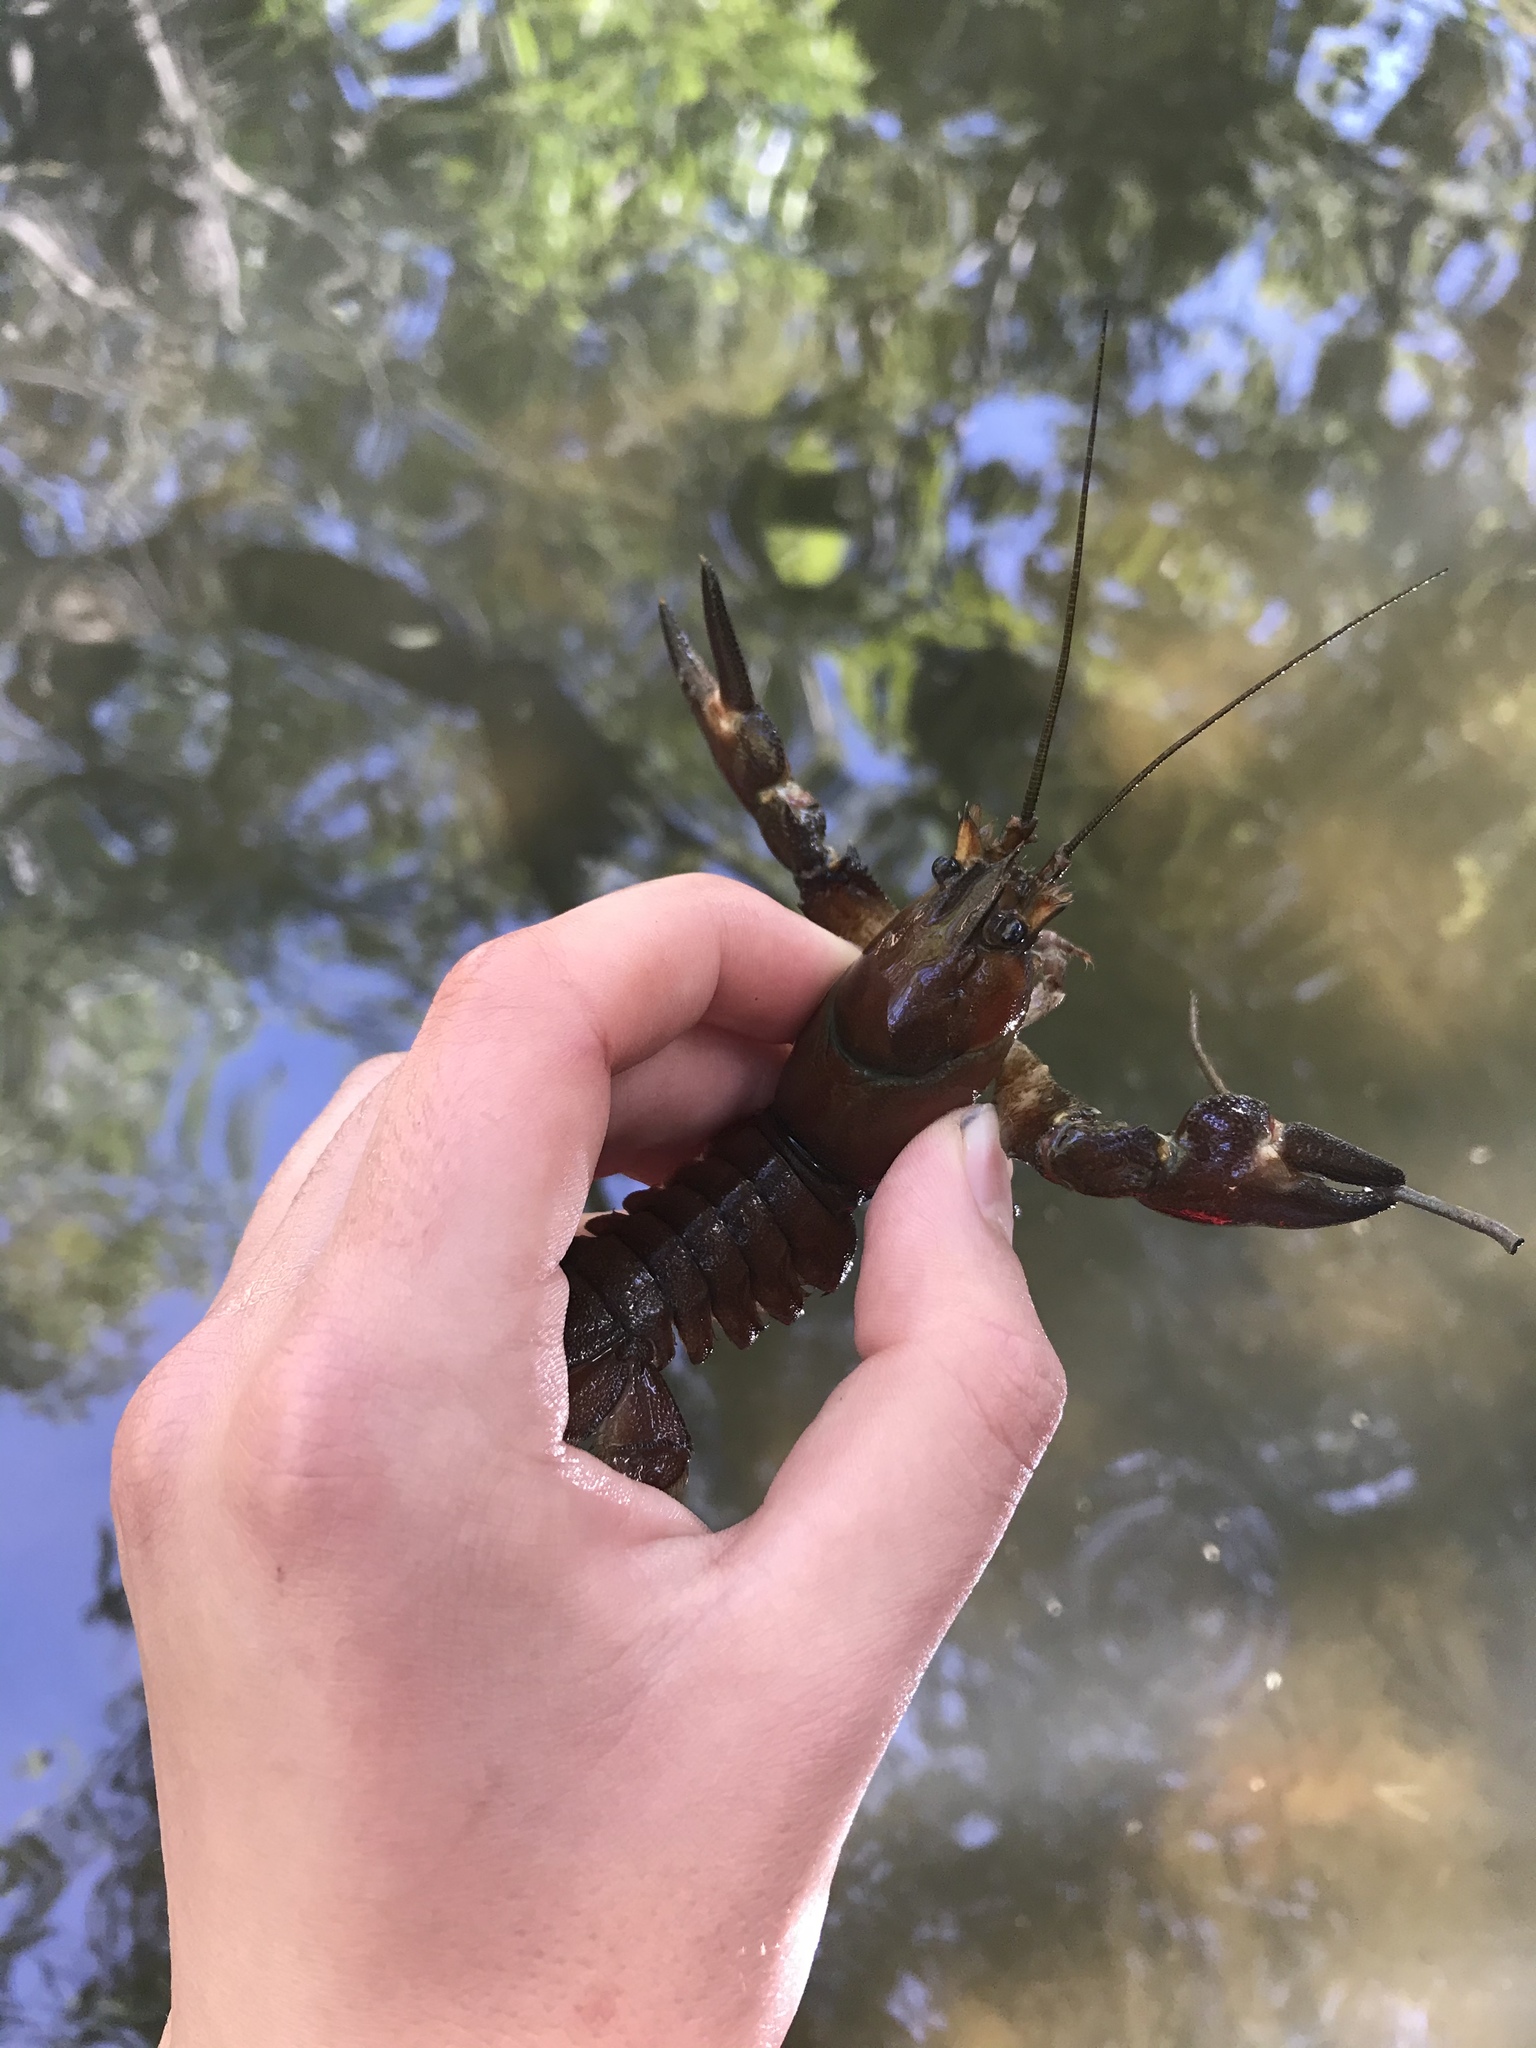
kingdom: Animalia
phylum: Arthropoda
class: Malacostraca
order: Decapoda
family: Astacidae
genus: Pacifastacus
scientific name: Pacifastacus leniusculus
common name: Signal crayfish
